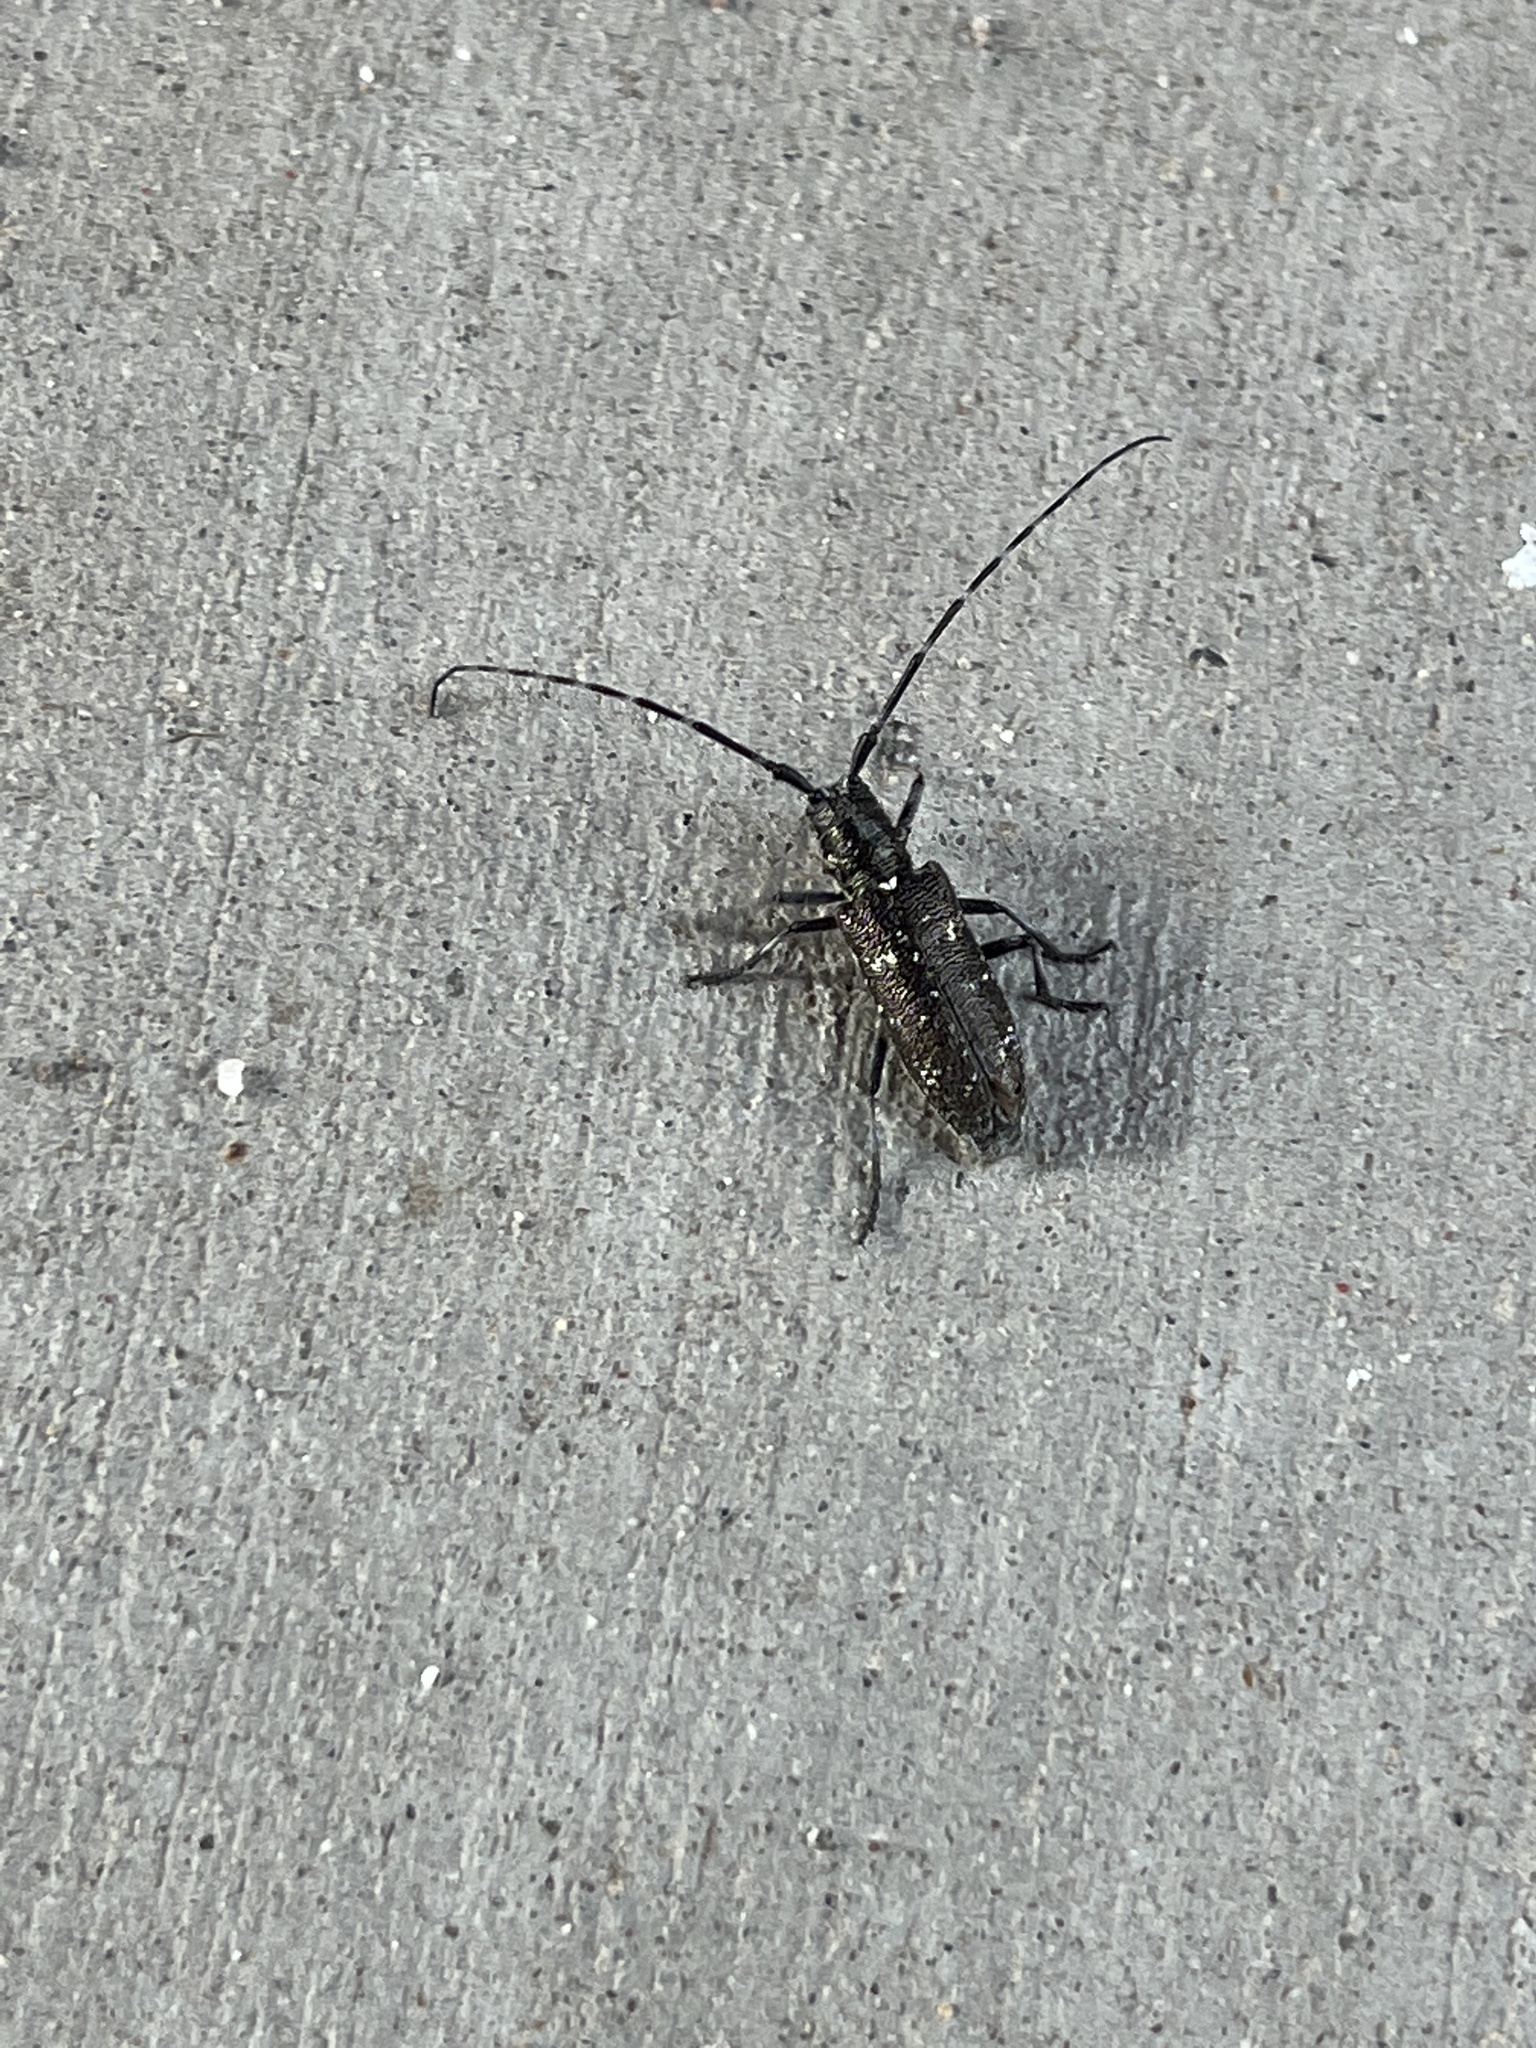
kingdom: Animalia
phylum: Arthropoda
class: Insecta
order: Coleoptera
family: Cerambycidae
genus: Monochamus
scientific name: Monochamus scutellatus
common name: White-spotted sawyer beetle
